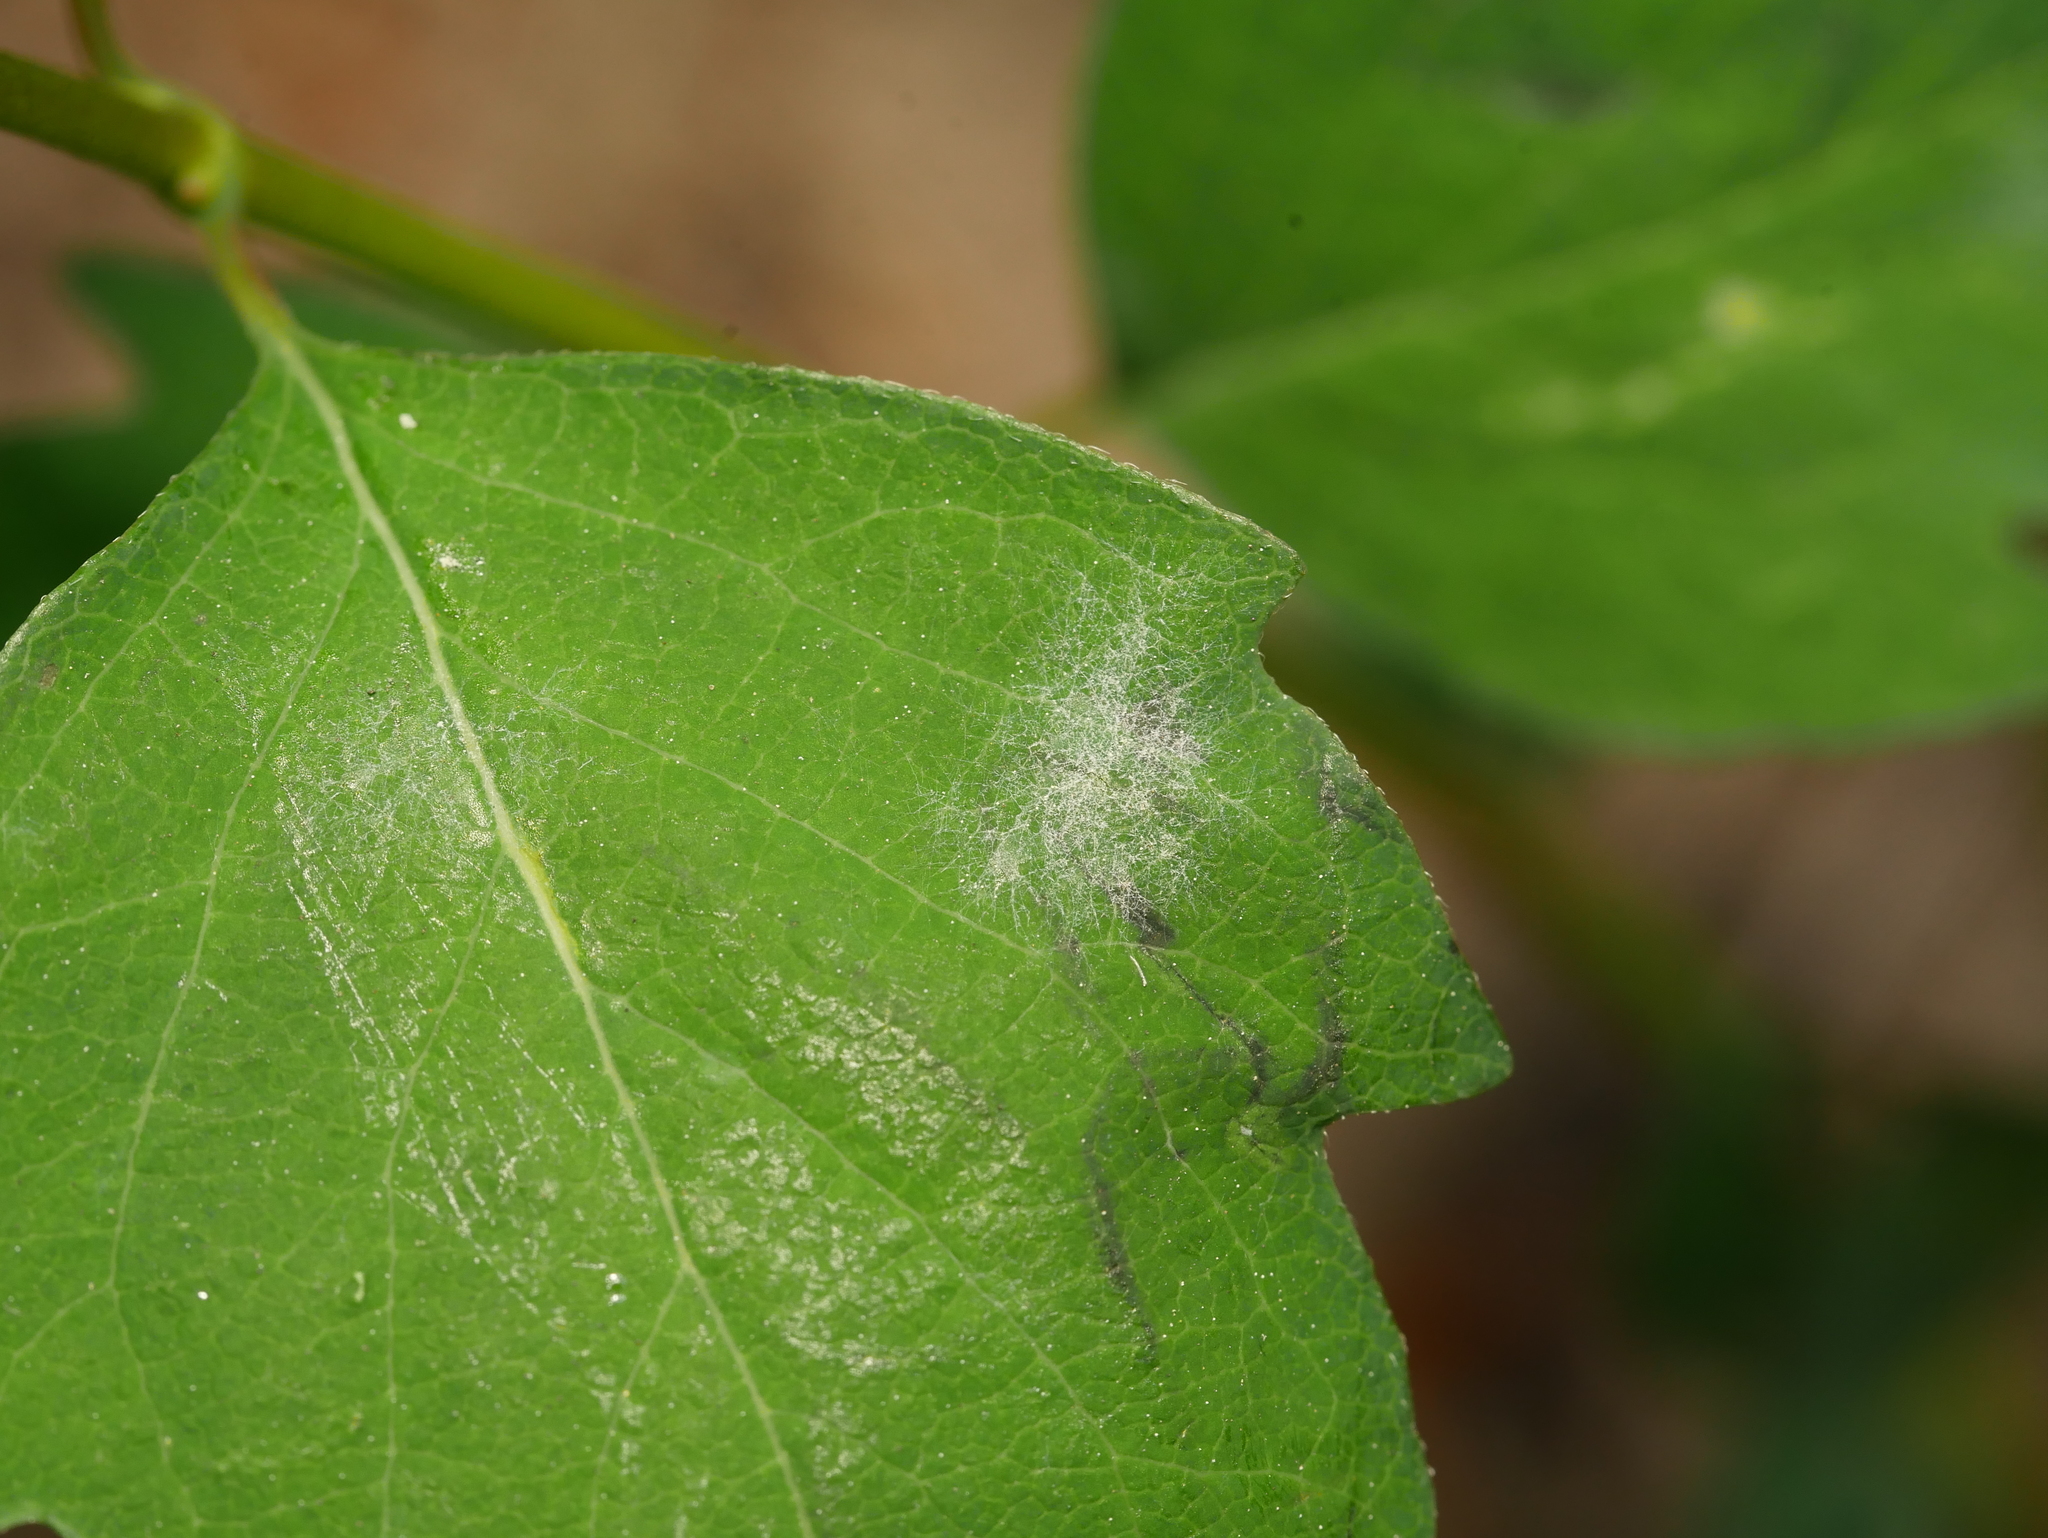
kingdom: Fungi
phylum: Ascomycota
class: Leotiomycetes
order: Helotiales
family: Erysiphaceae
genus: Erysiphe
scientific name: Erysiphe symphoricarpi
